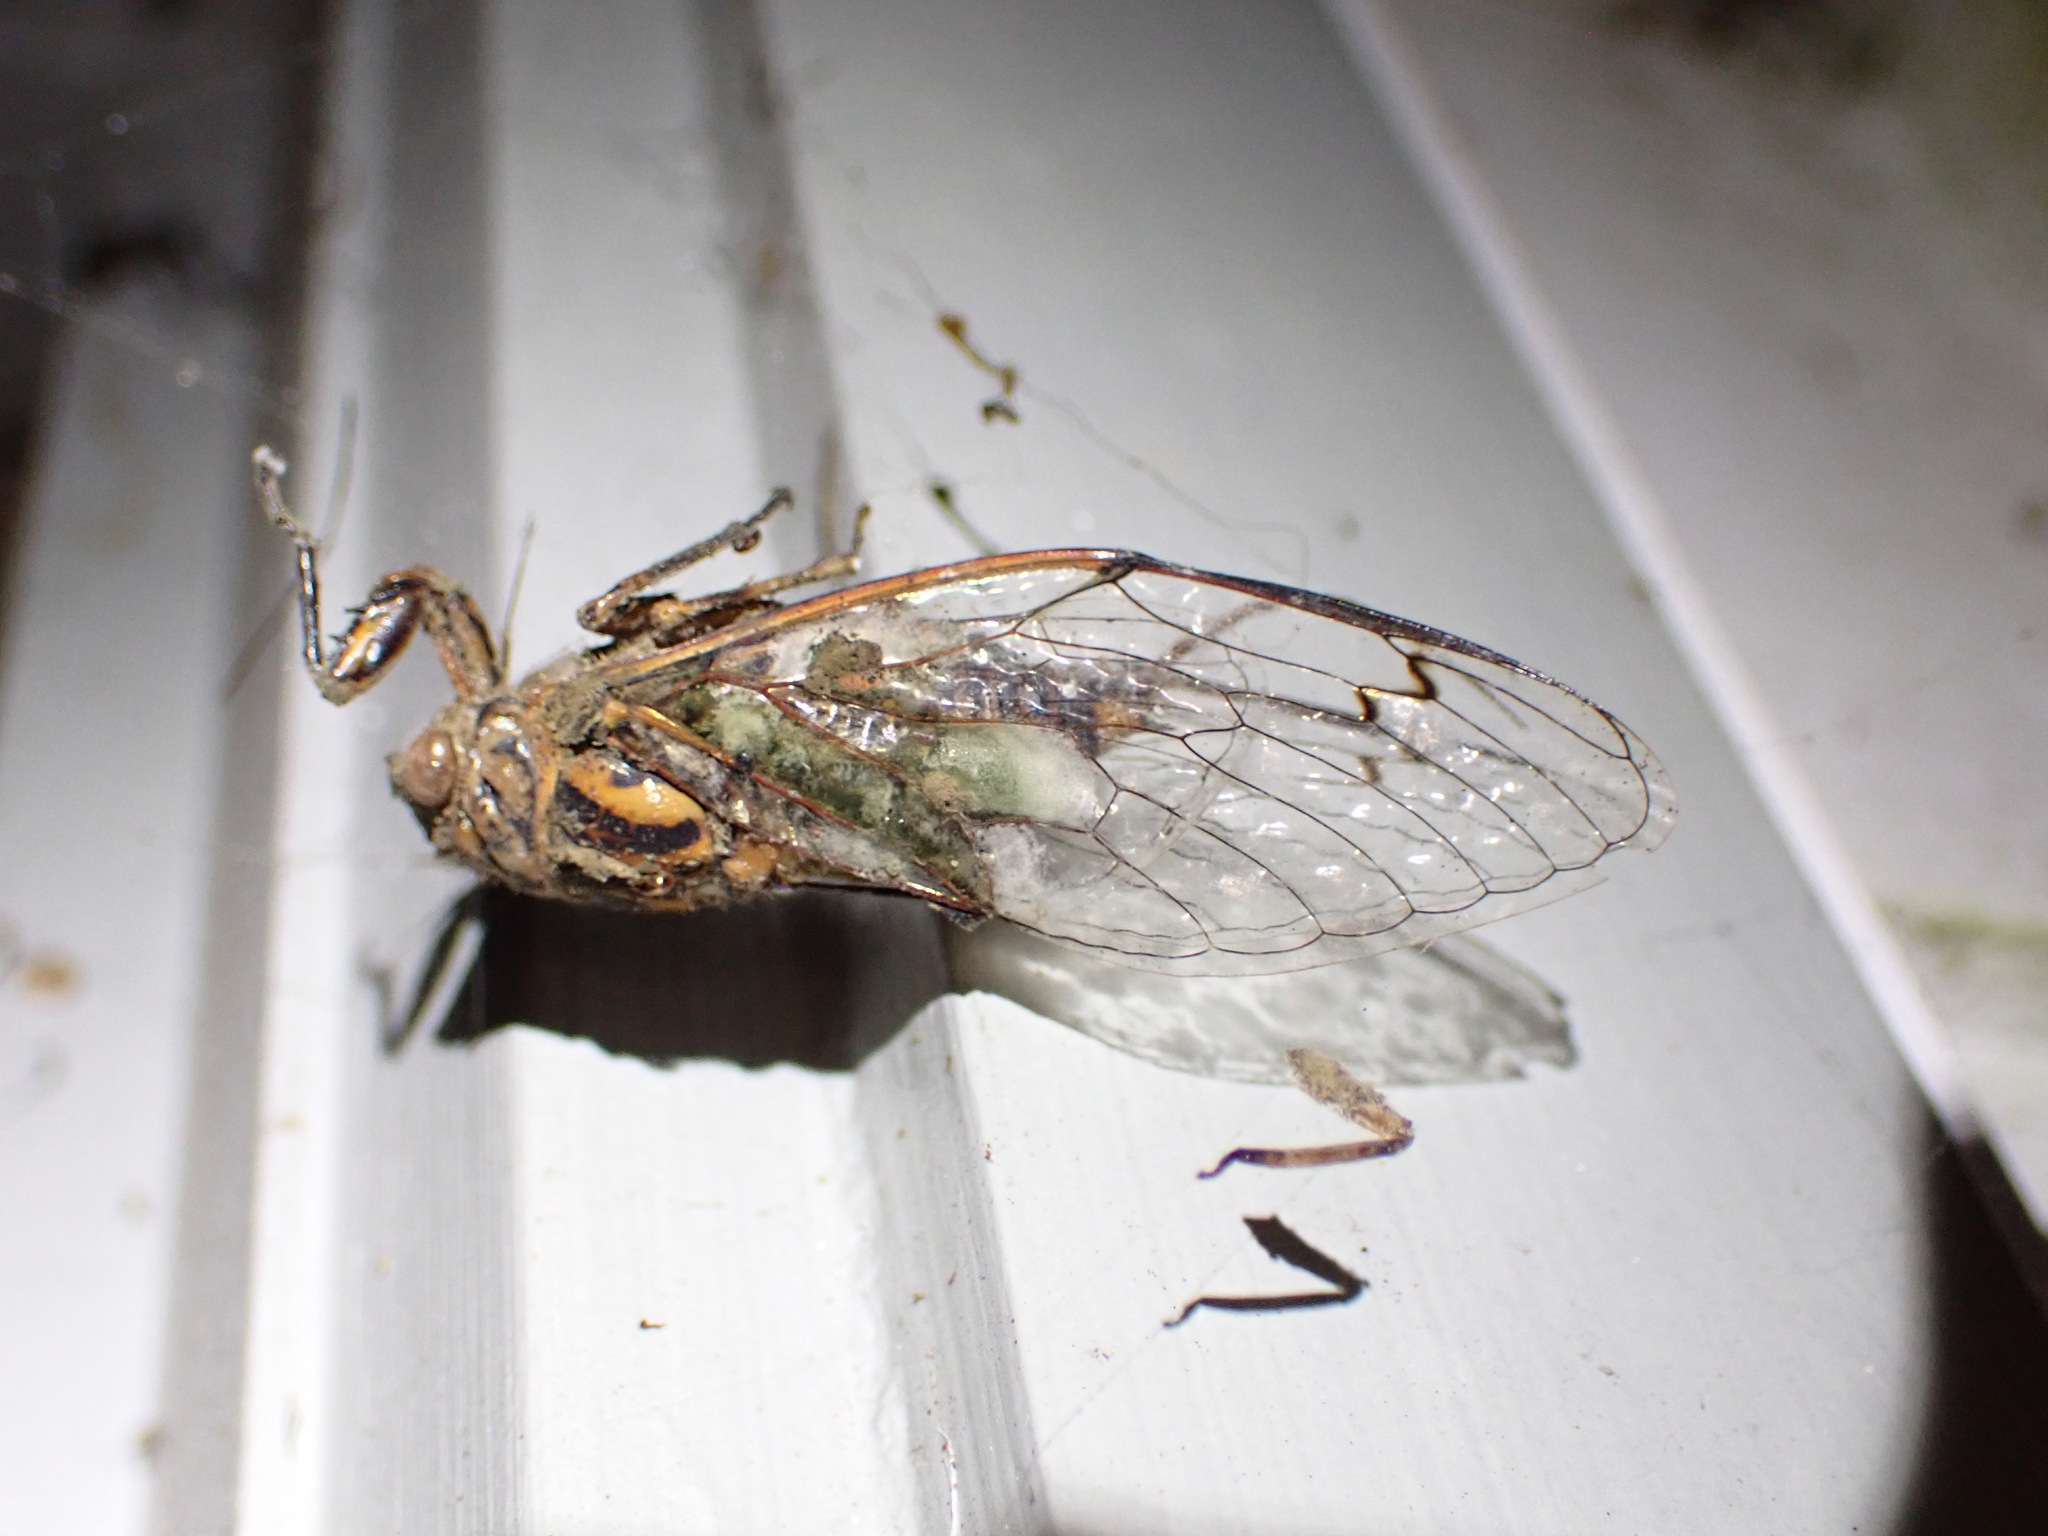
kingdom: Animalia
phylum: Arthropoda
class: Insecta
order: Hemiptera
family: Cicadidae
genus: Amphipsalta
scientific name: Amphipsalta zelandica
